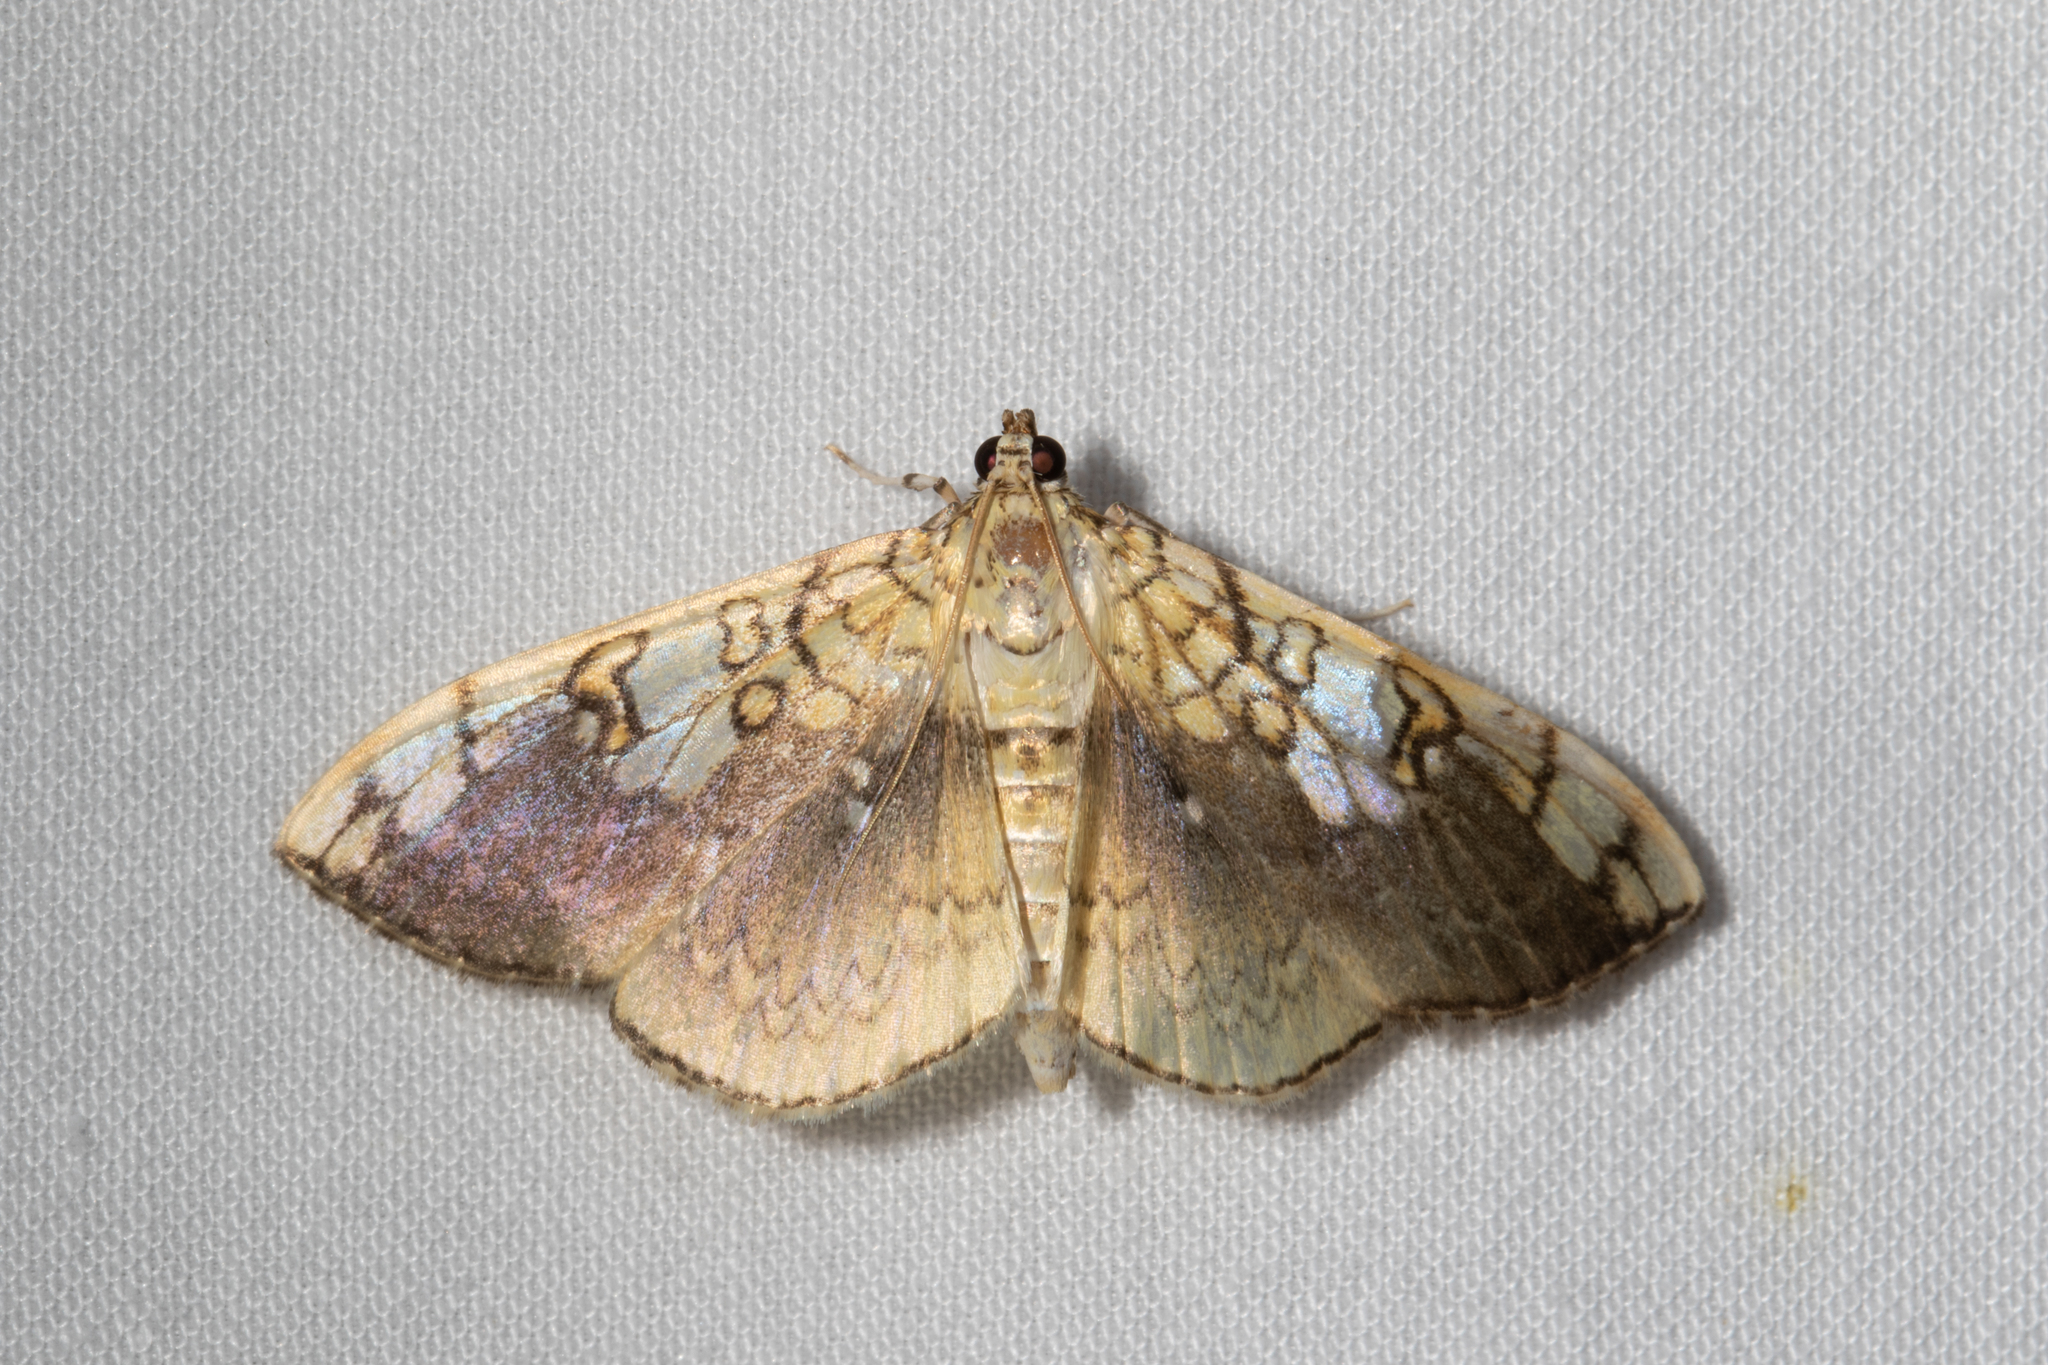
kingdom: Animalia
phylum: Arthropoda
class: Insecta
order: Lepidoptera
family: Crambidae
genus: Pantographa
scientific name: Pantographa limata
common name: Basswood leafroller moth
